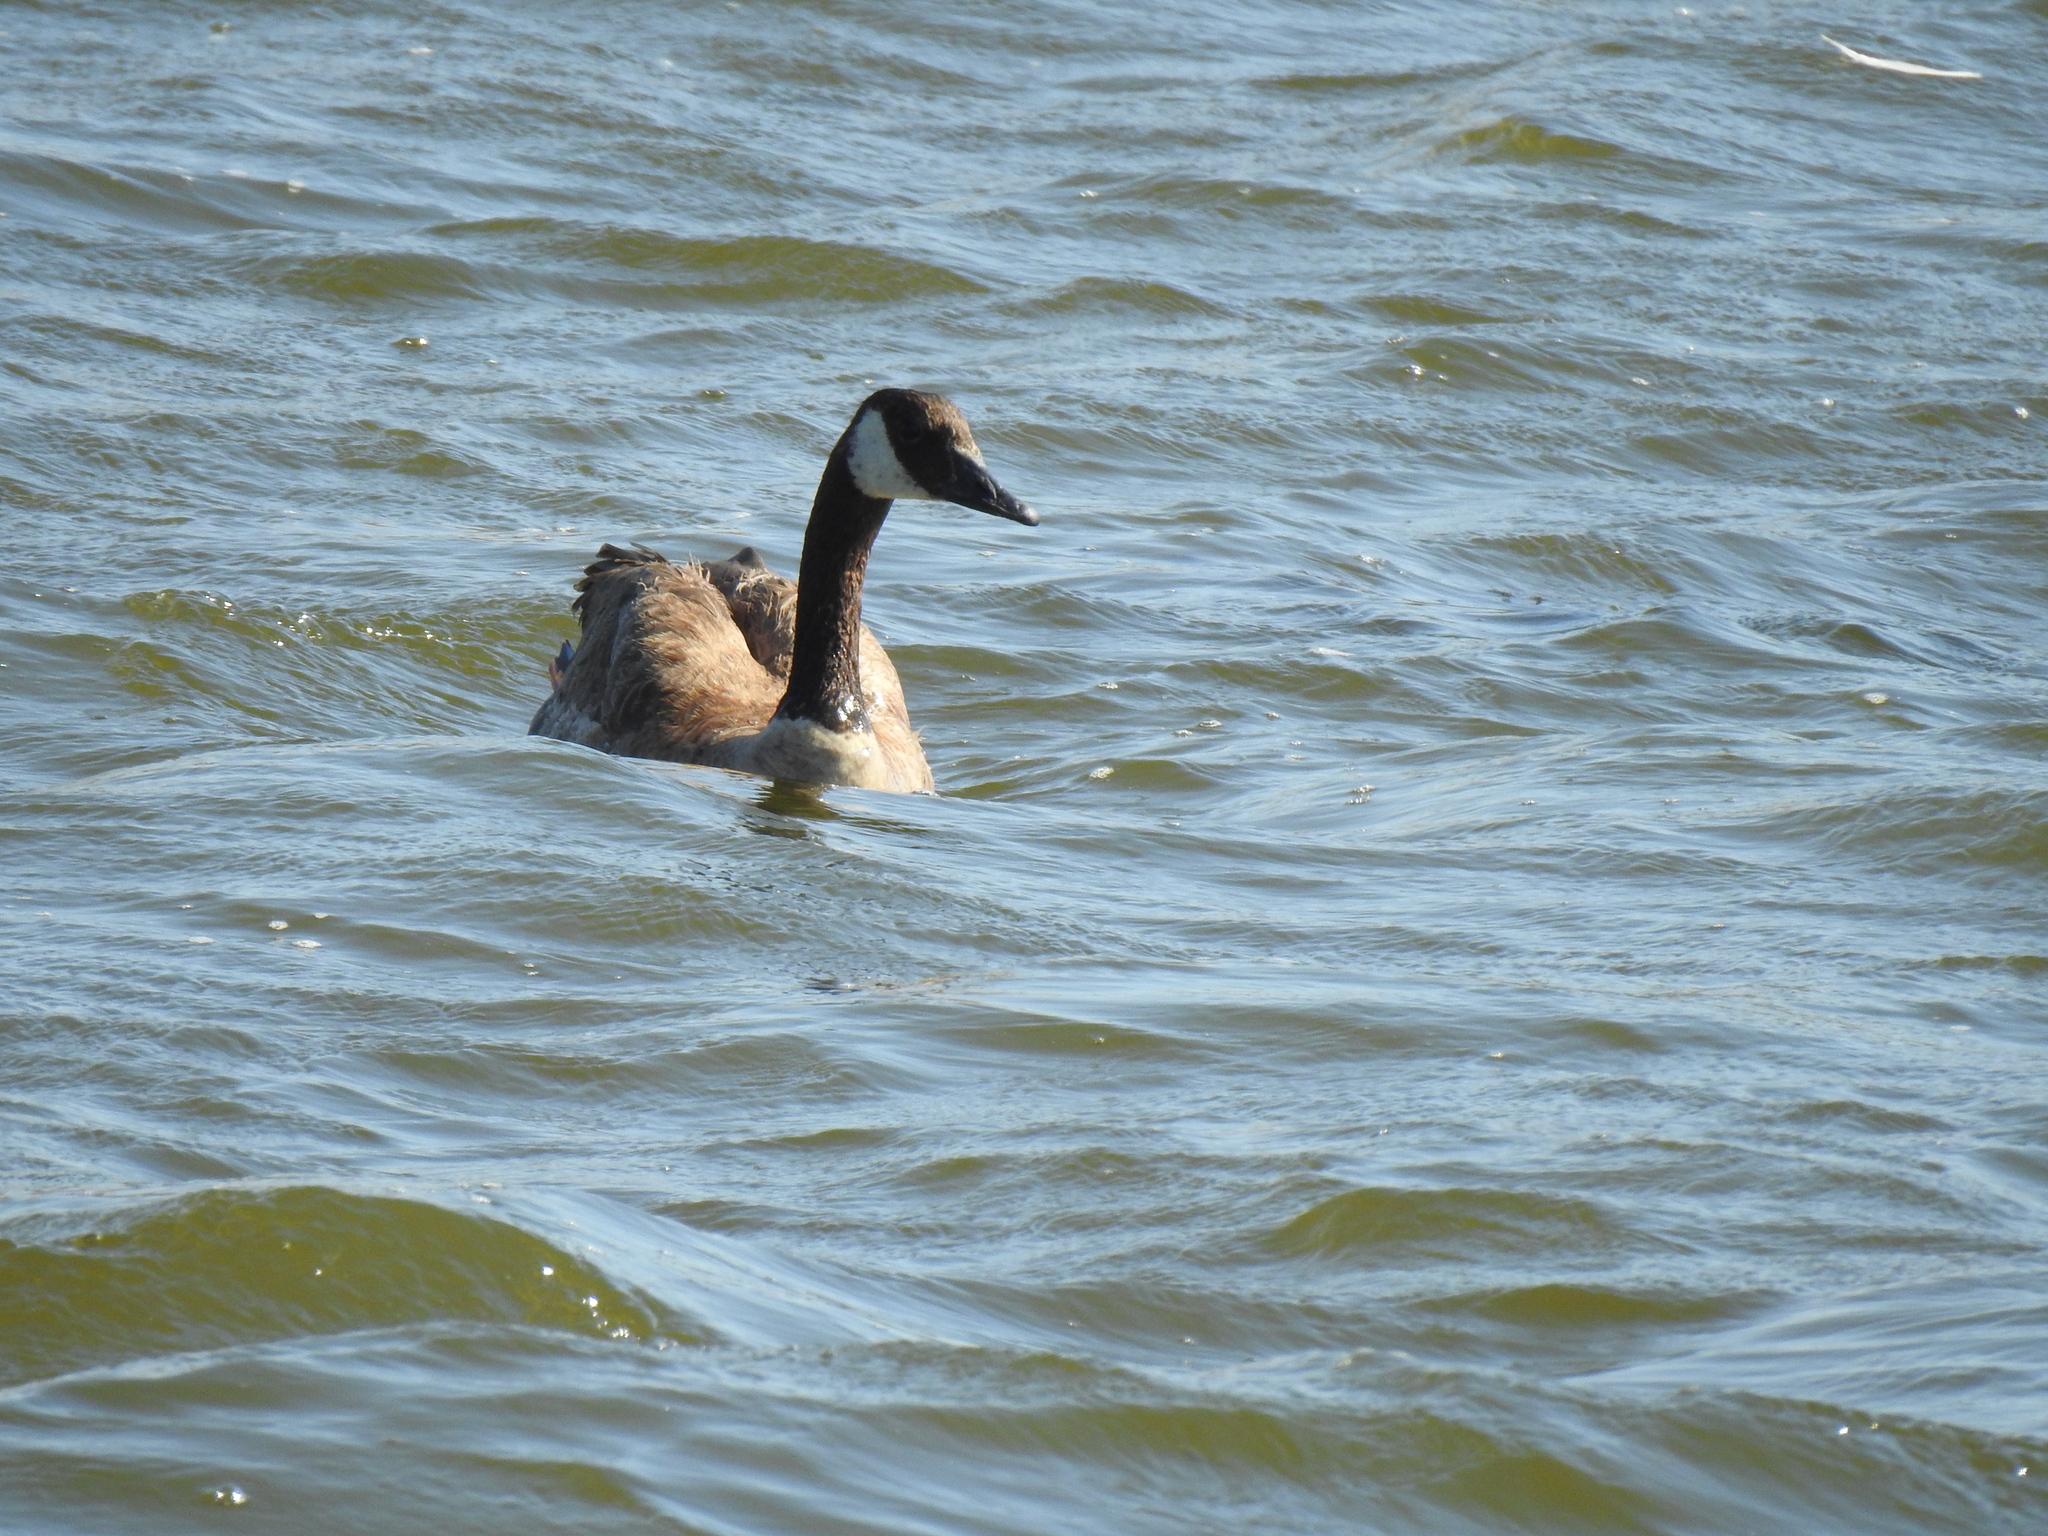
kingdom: Animalia
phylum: Chordata
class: Aves
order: Anseriformes
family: Anatidae
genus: Branta
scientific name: Branta canadensis
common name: Canada goose
